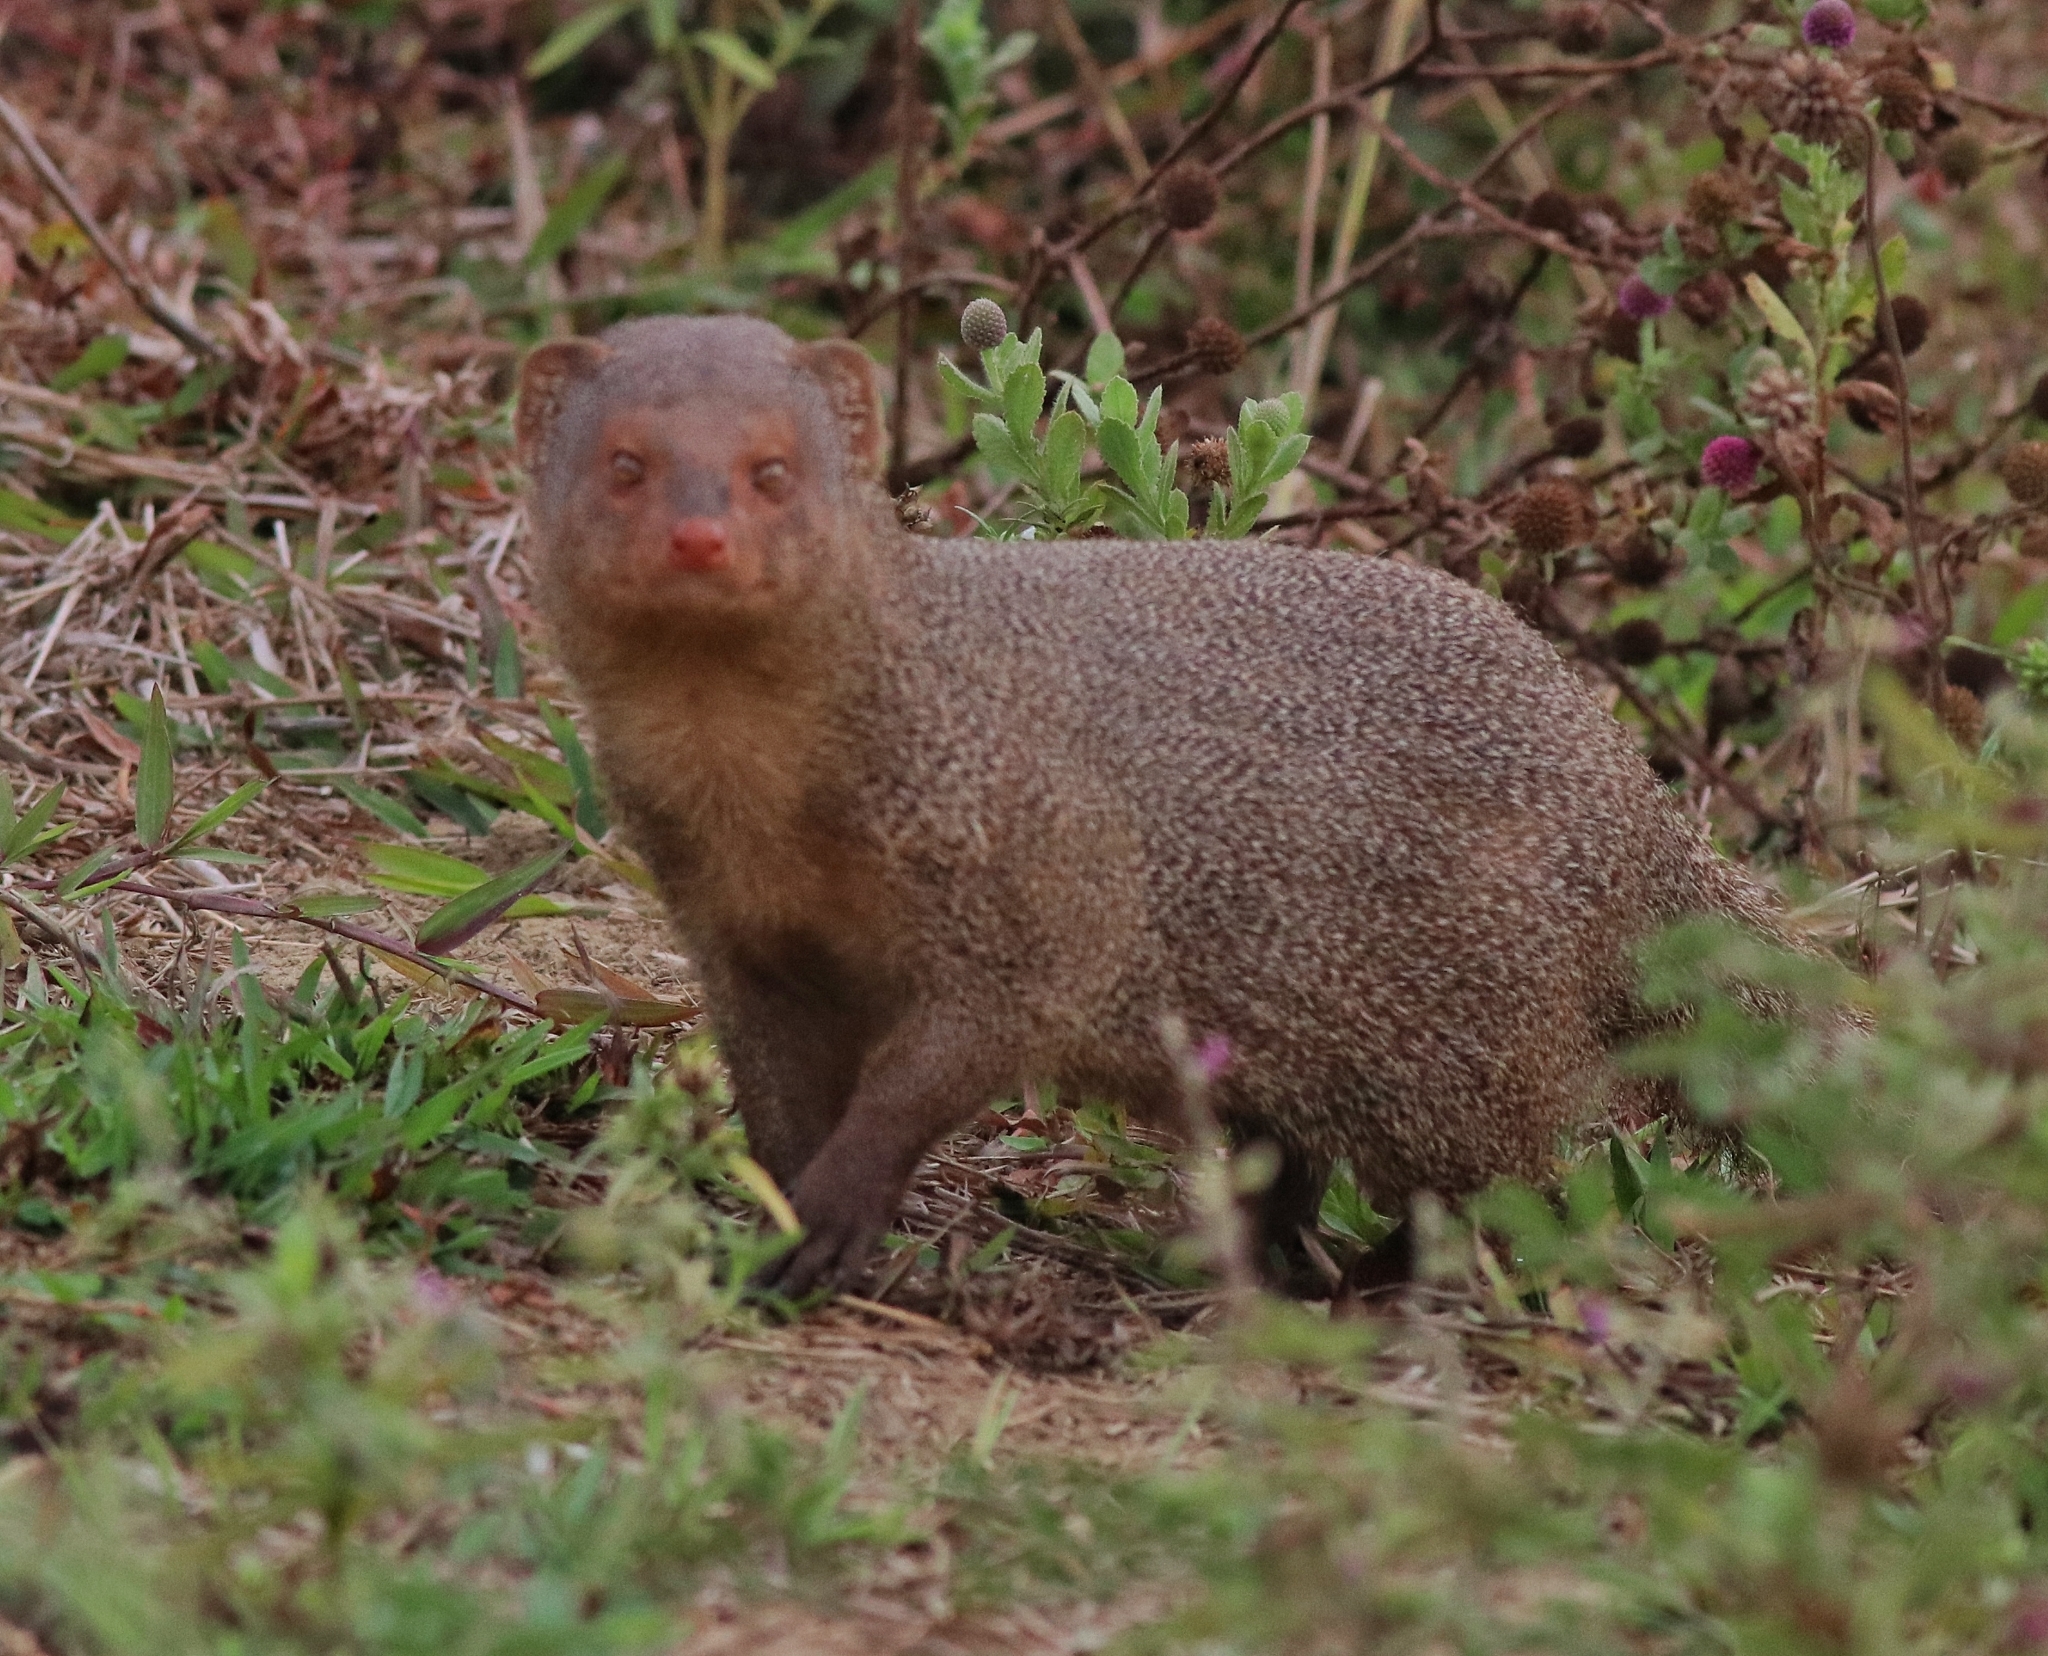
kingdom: Animalia
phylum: Chordata
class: Mammalia
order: Carnivora
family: Herpestidae
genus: Herpestes
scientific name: Herpestes edwardsi
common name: Indian gray mongoose
